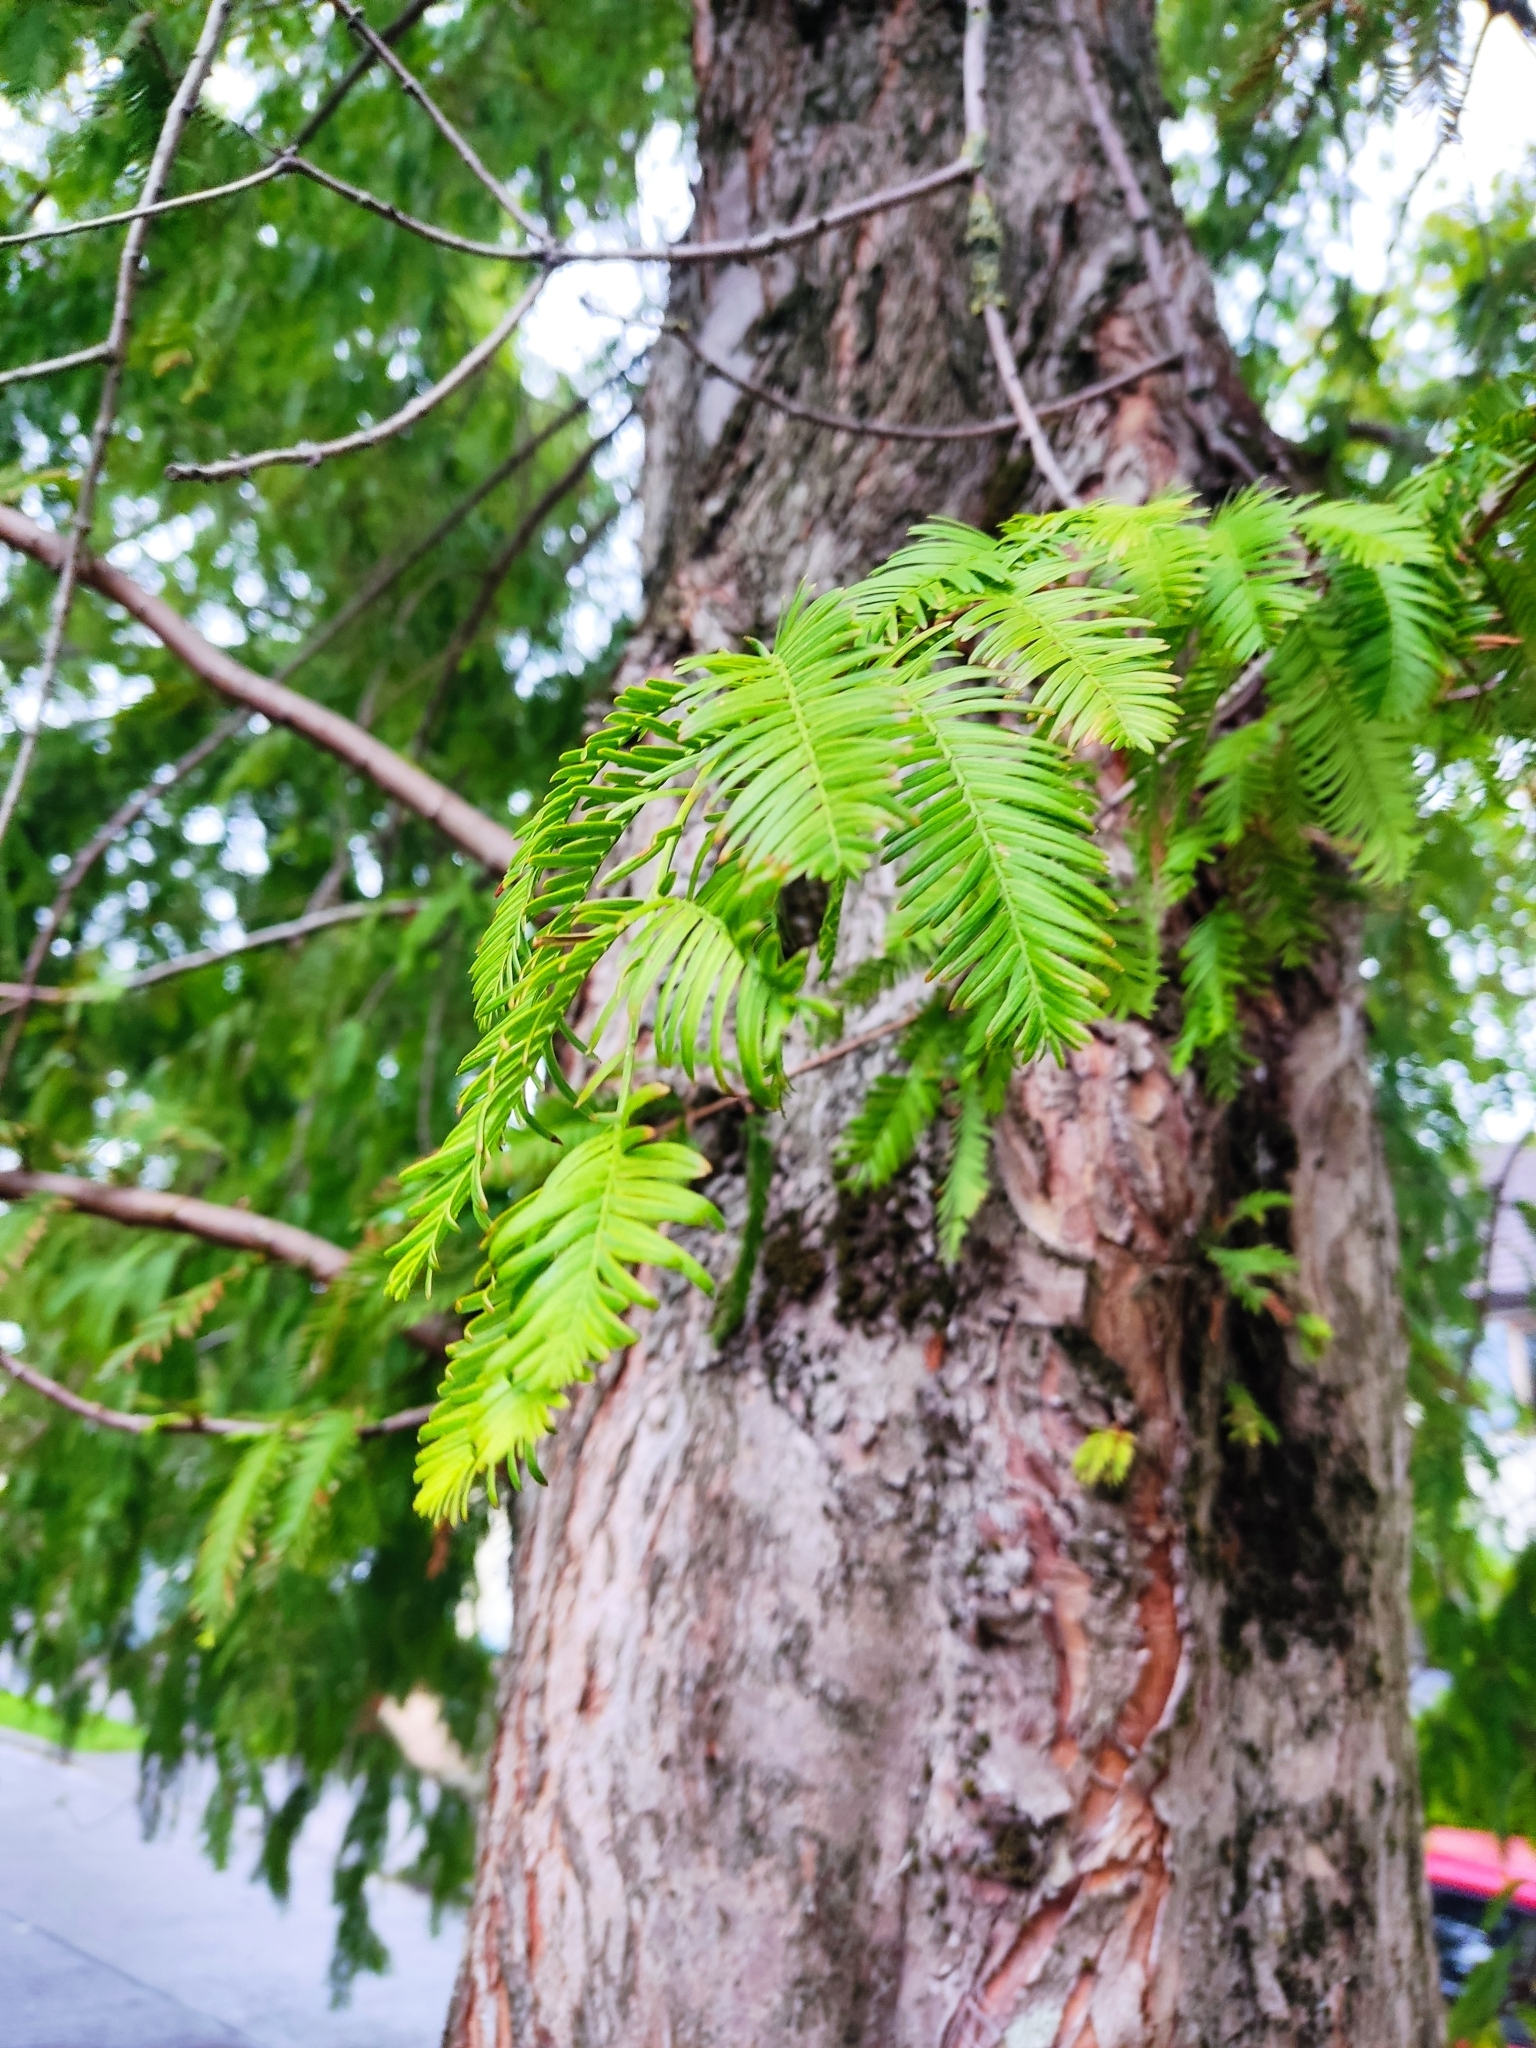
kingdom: Plantae
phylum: Tracheophyta
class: Pinopsida
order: Pinales
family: Cupressaceae
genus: Metasequoia
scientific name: Metasequoia glyptostroboides
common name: Dawn redwood
